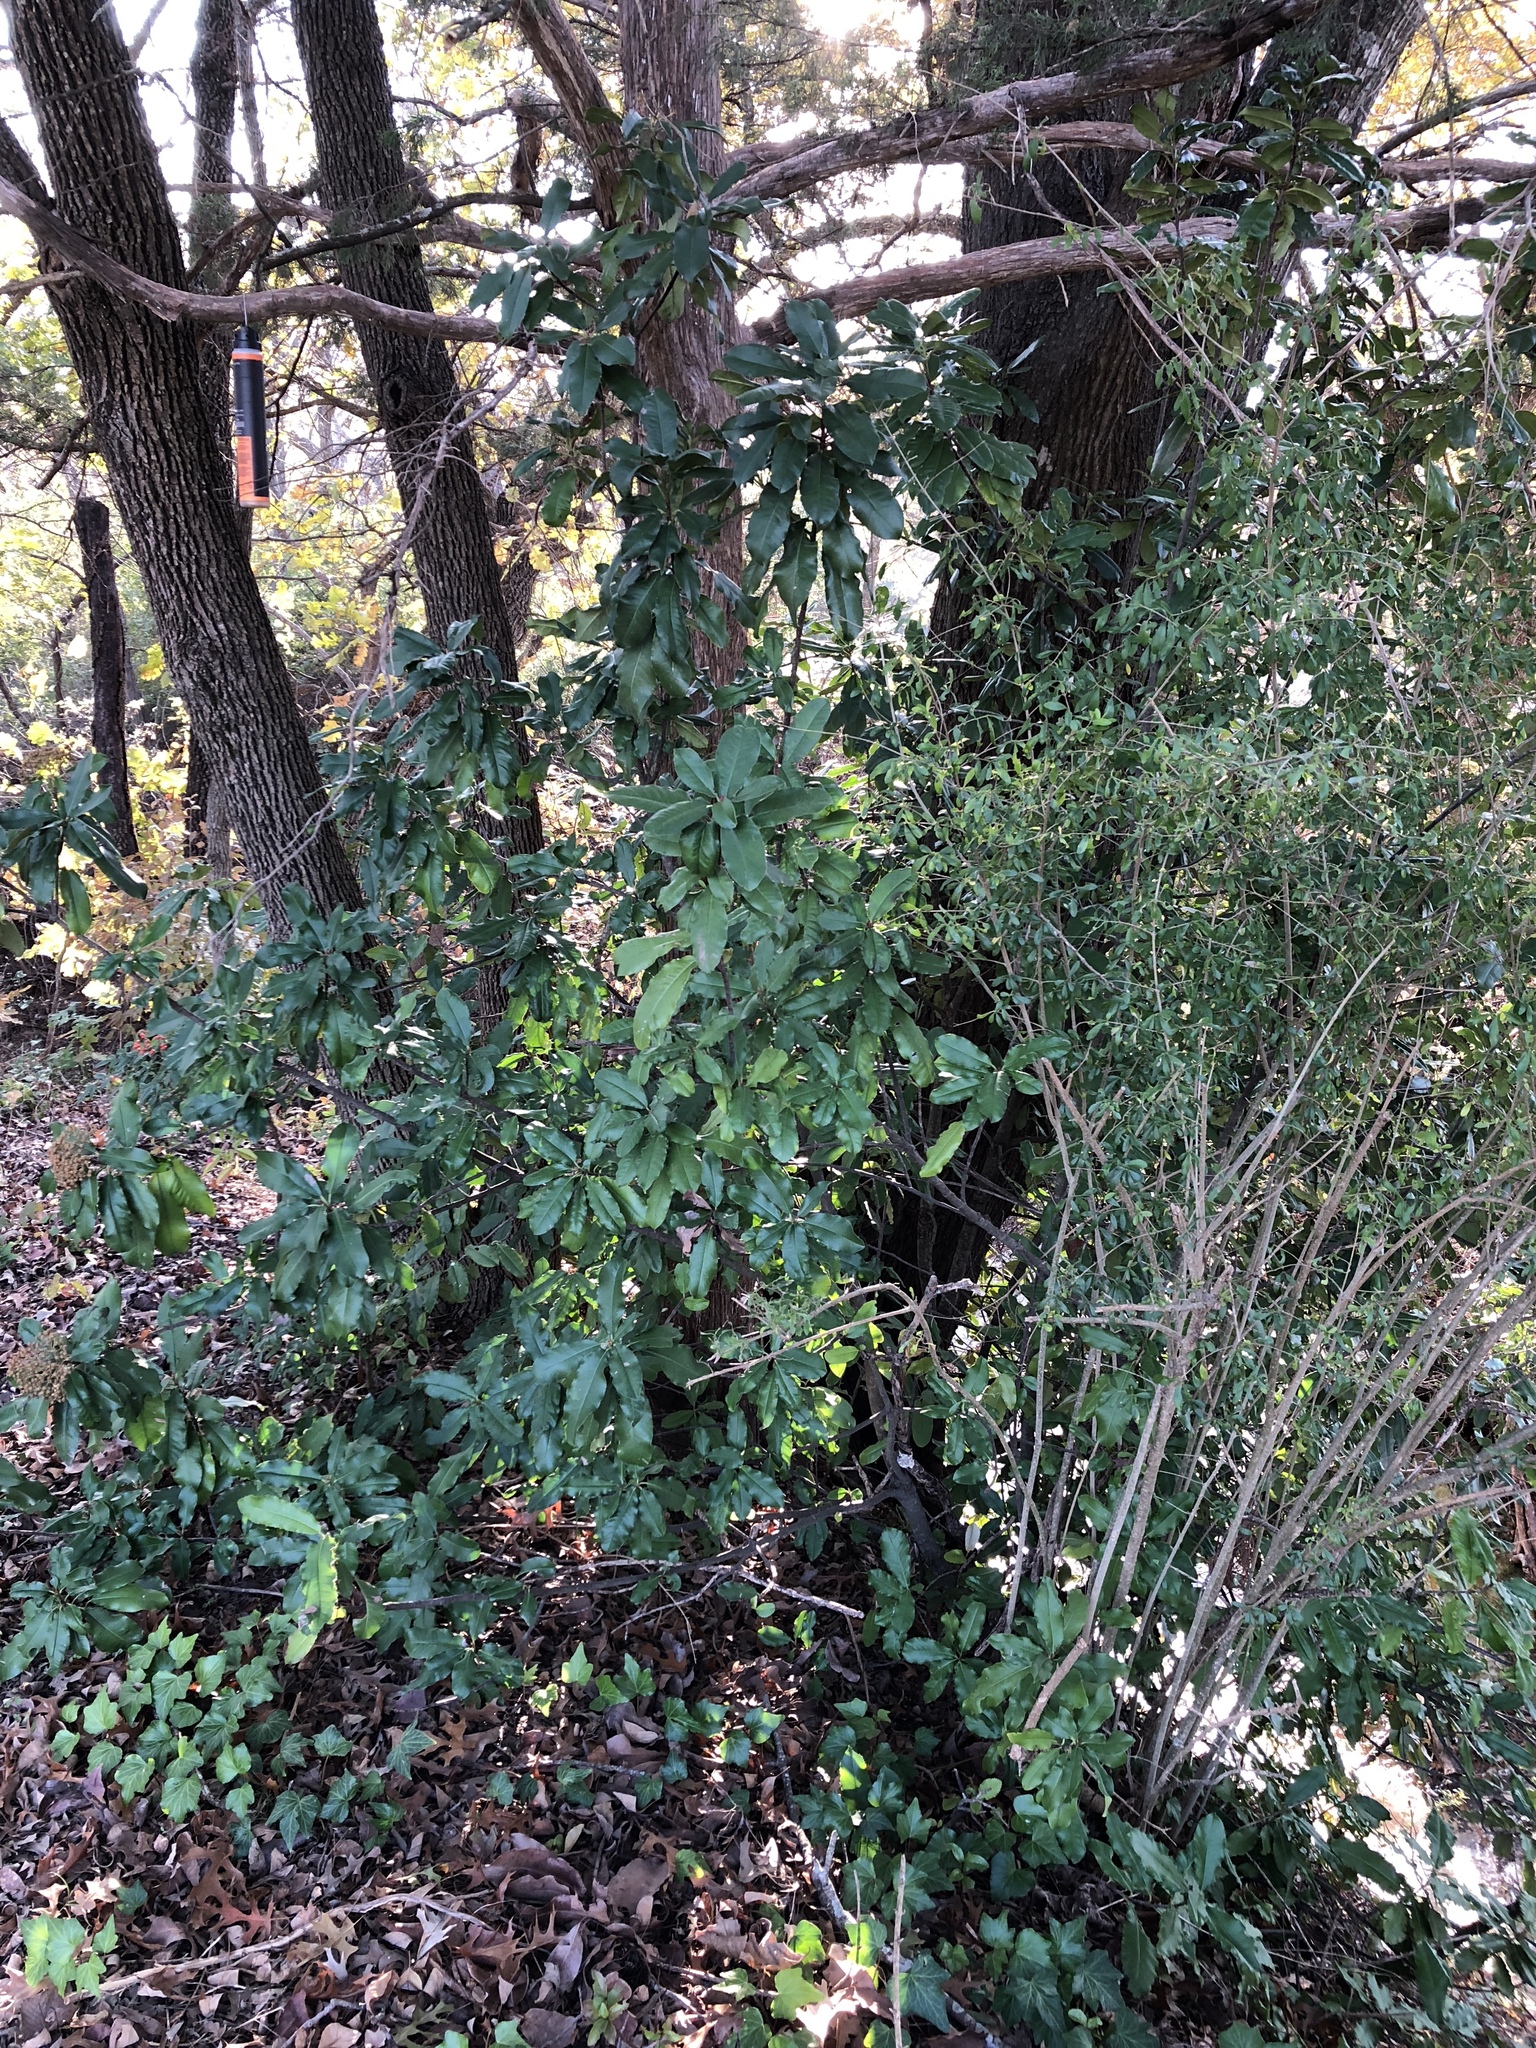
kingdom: Plantae
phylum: Tracheophyta
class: Magnoliopsida
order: Rosales
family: Rosaceae
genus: Photinia
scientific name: Photinia serratifolia
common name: Taiwanese photinia
